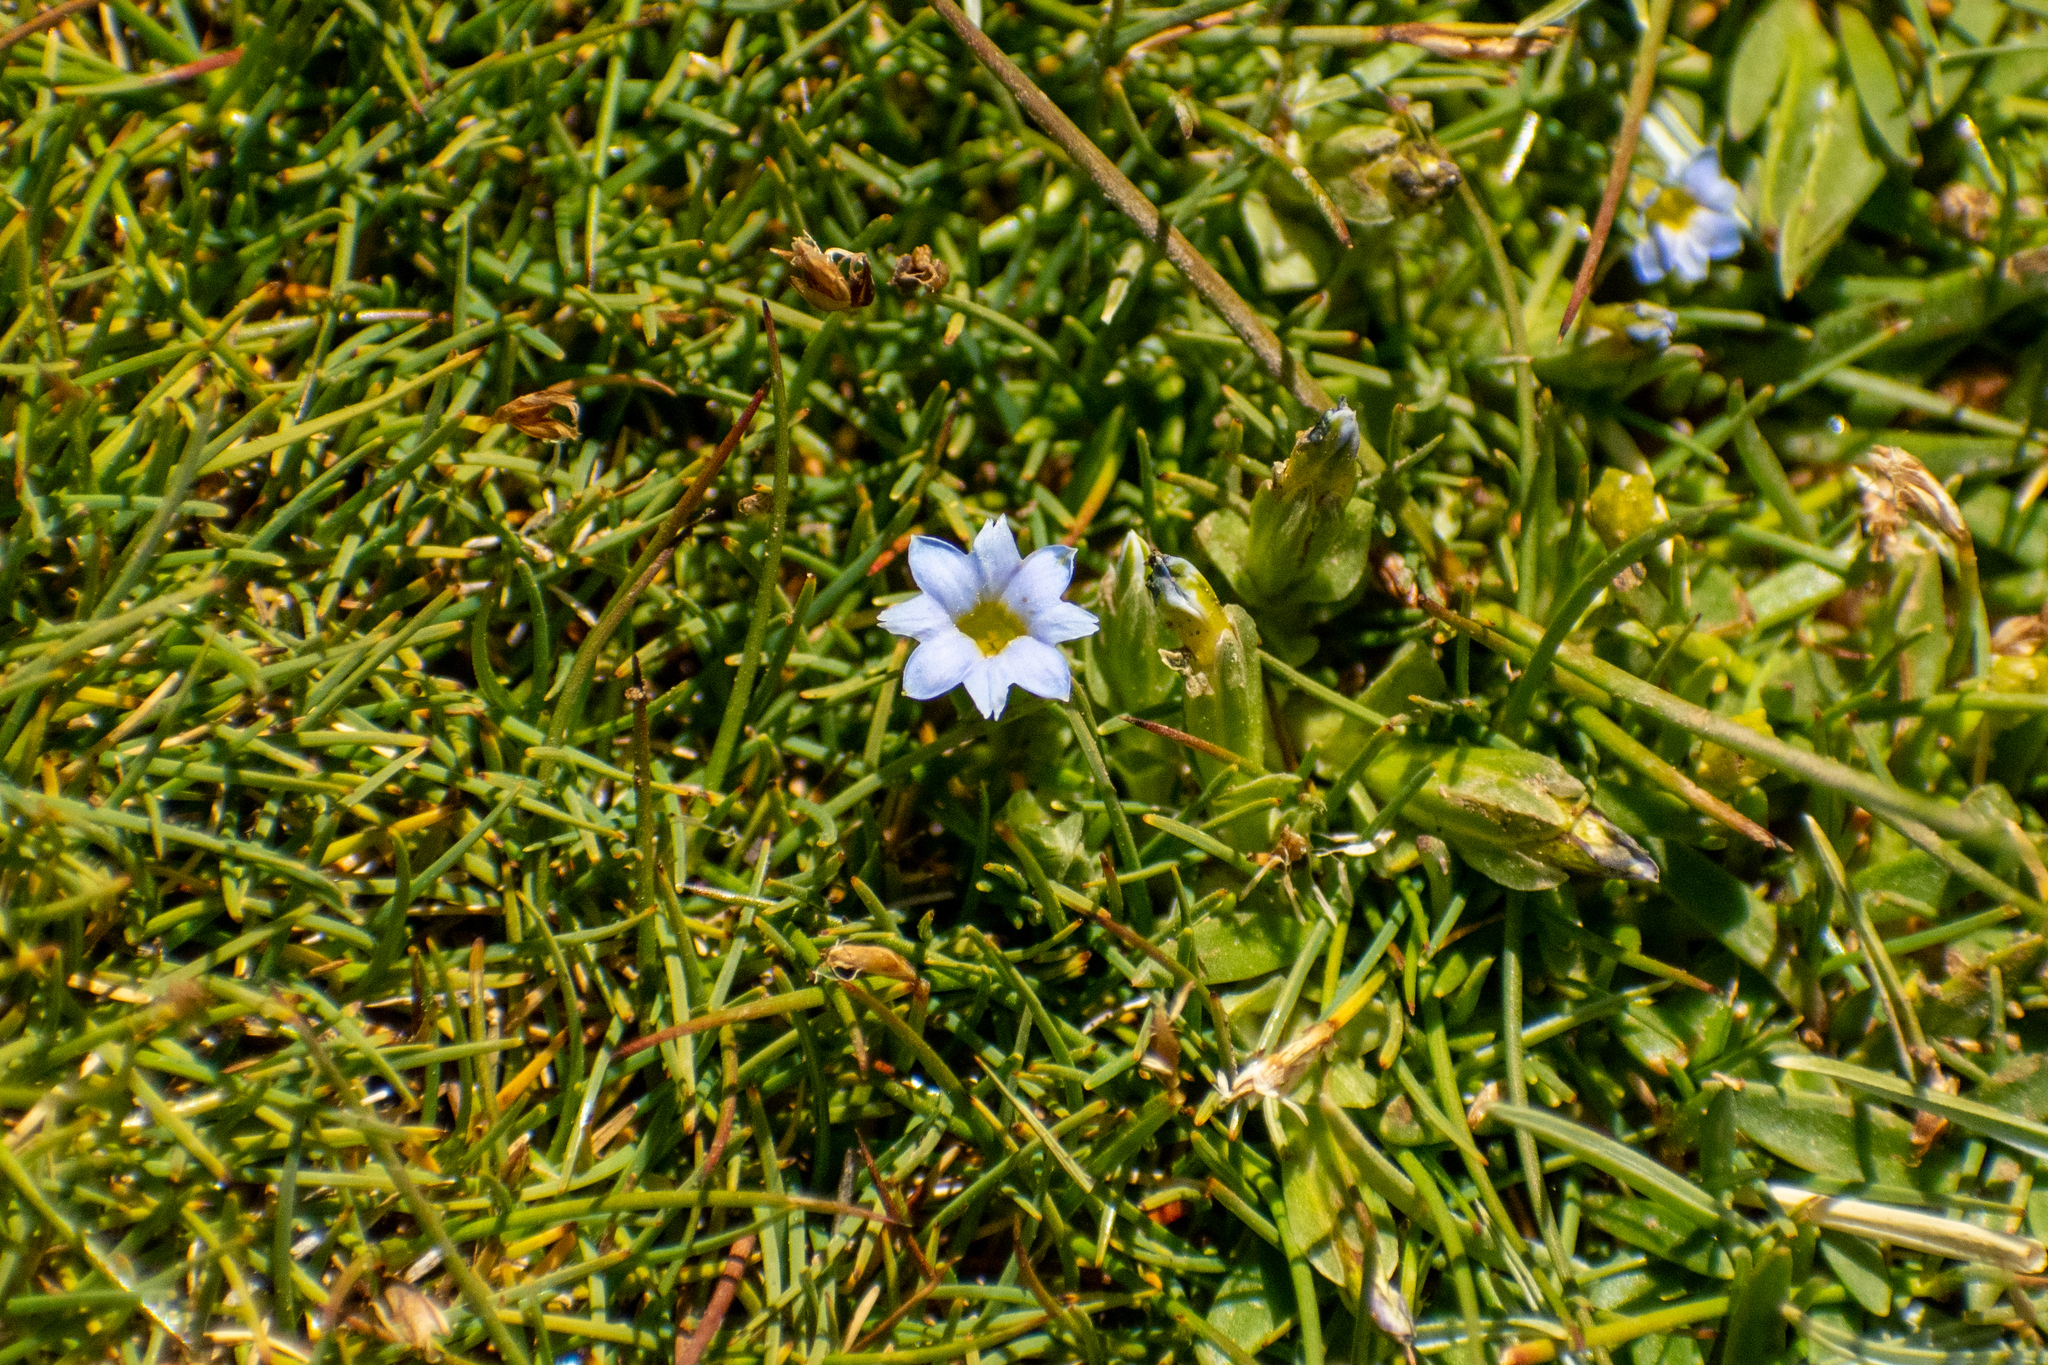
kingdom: Plantae
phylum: Tracheophyta
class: Magnoliopsida
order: Gentianales
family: Gentianaceae
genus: Gentiana
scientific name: Gentiana gayi
